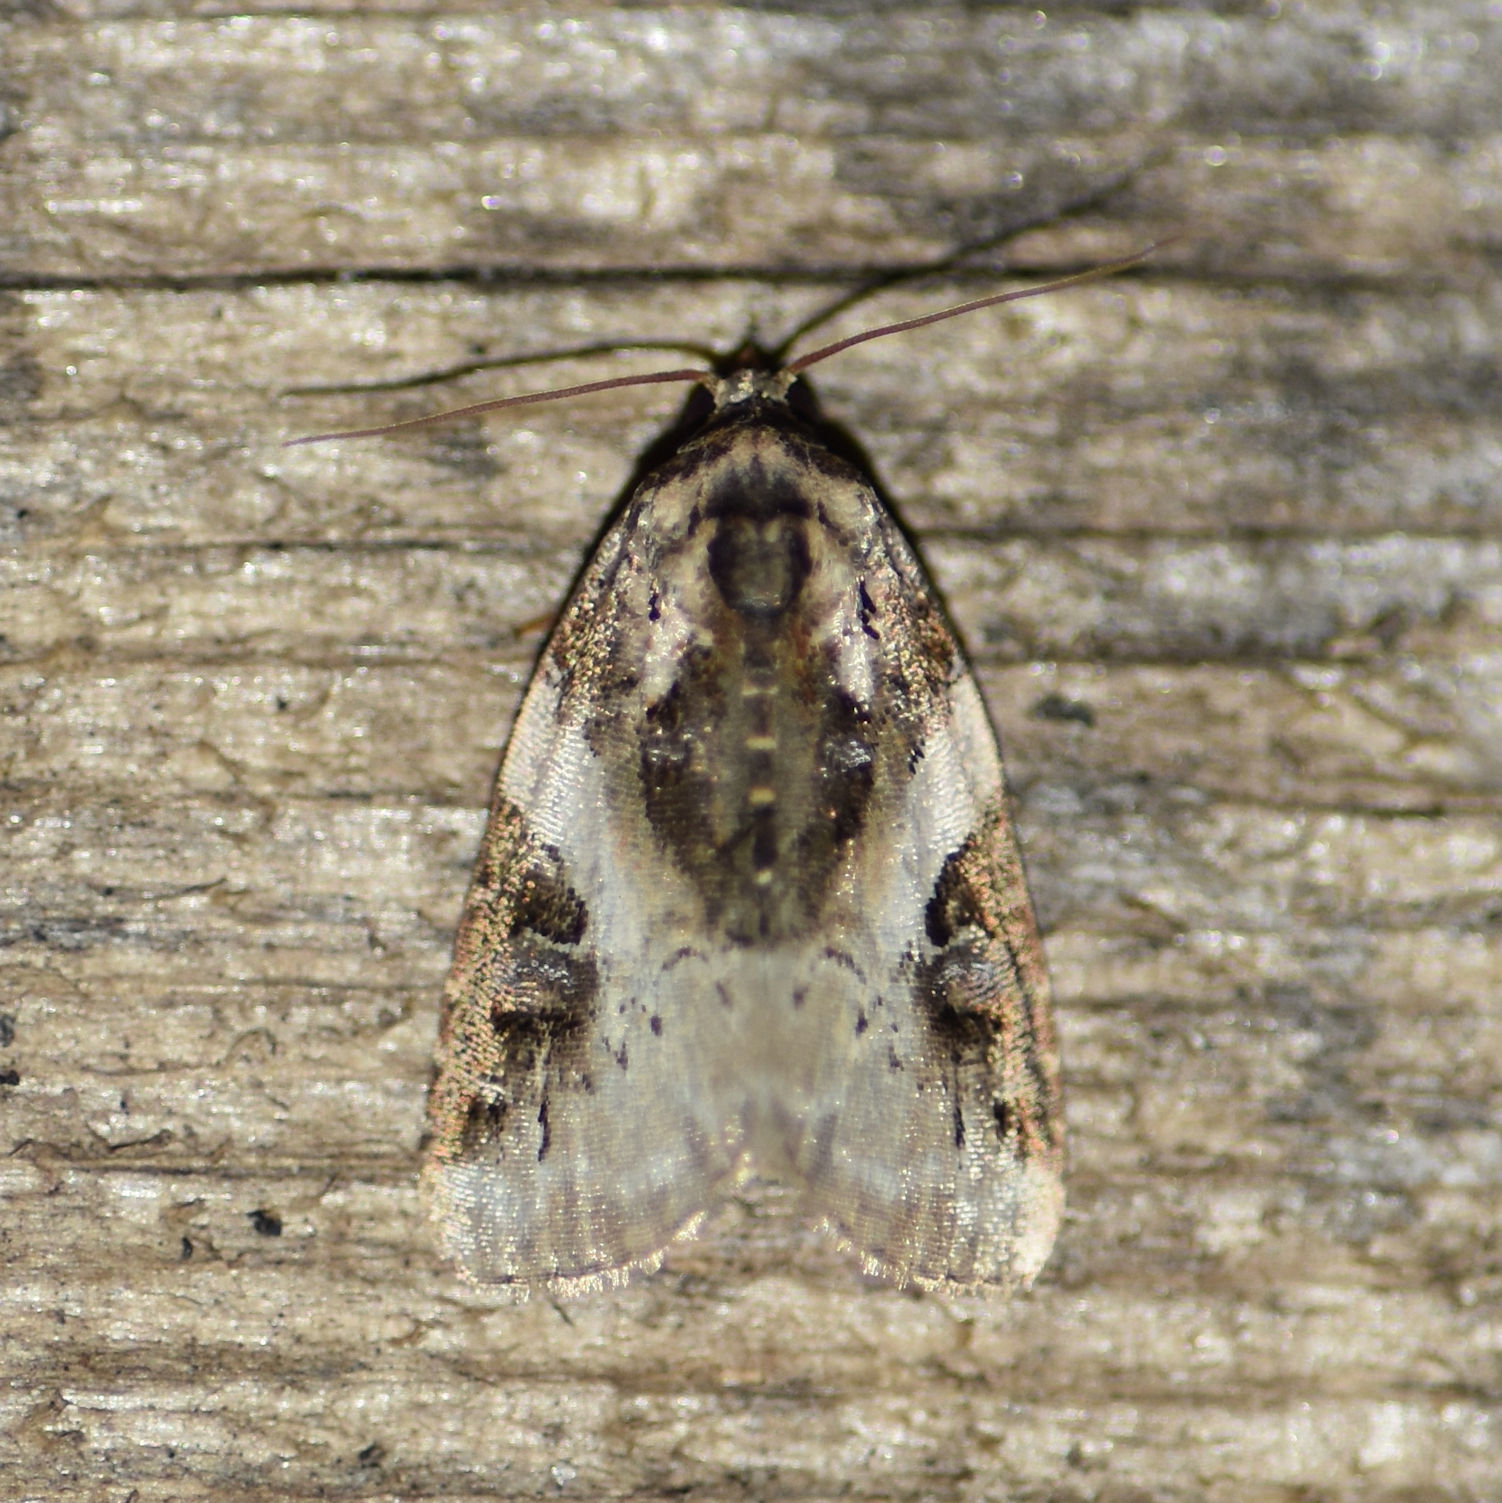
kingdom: Animalia
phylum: Arthropoda
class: Insecta
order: Lepidoptera
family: Noctuidae
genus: Pseudeustrotia
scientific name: Pseudeustrotia carneola
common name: Pink-barred lithacodia moth
